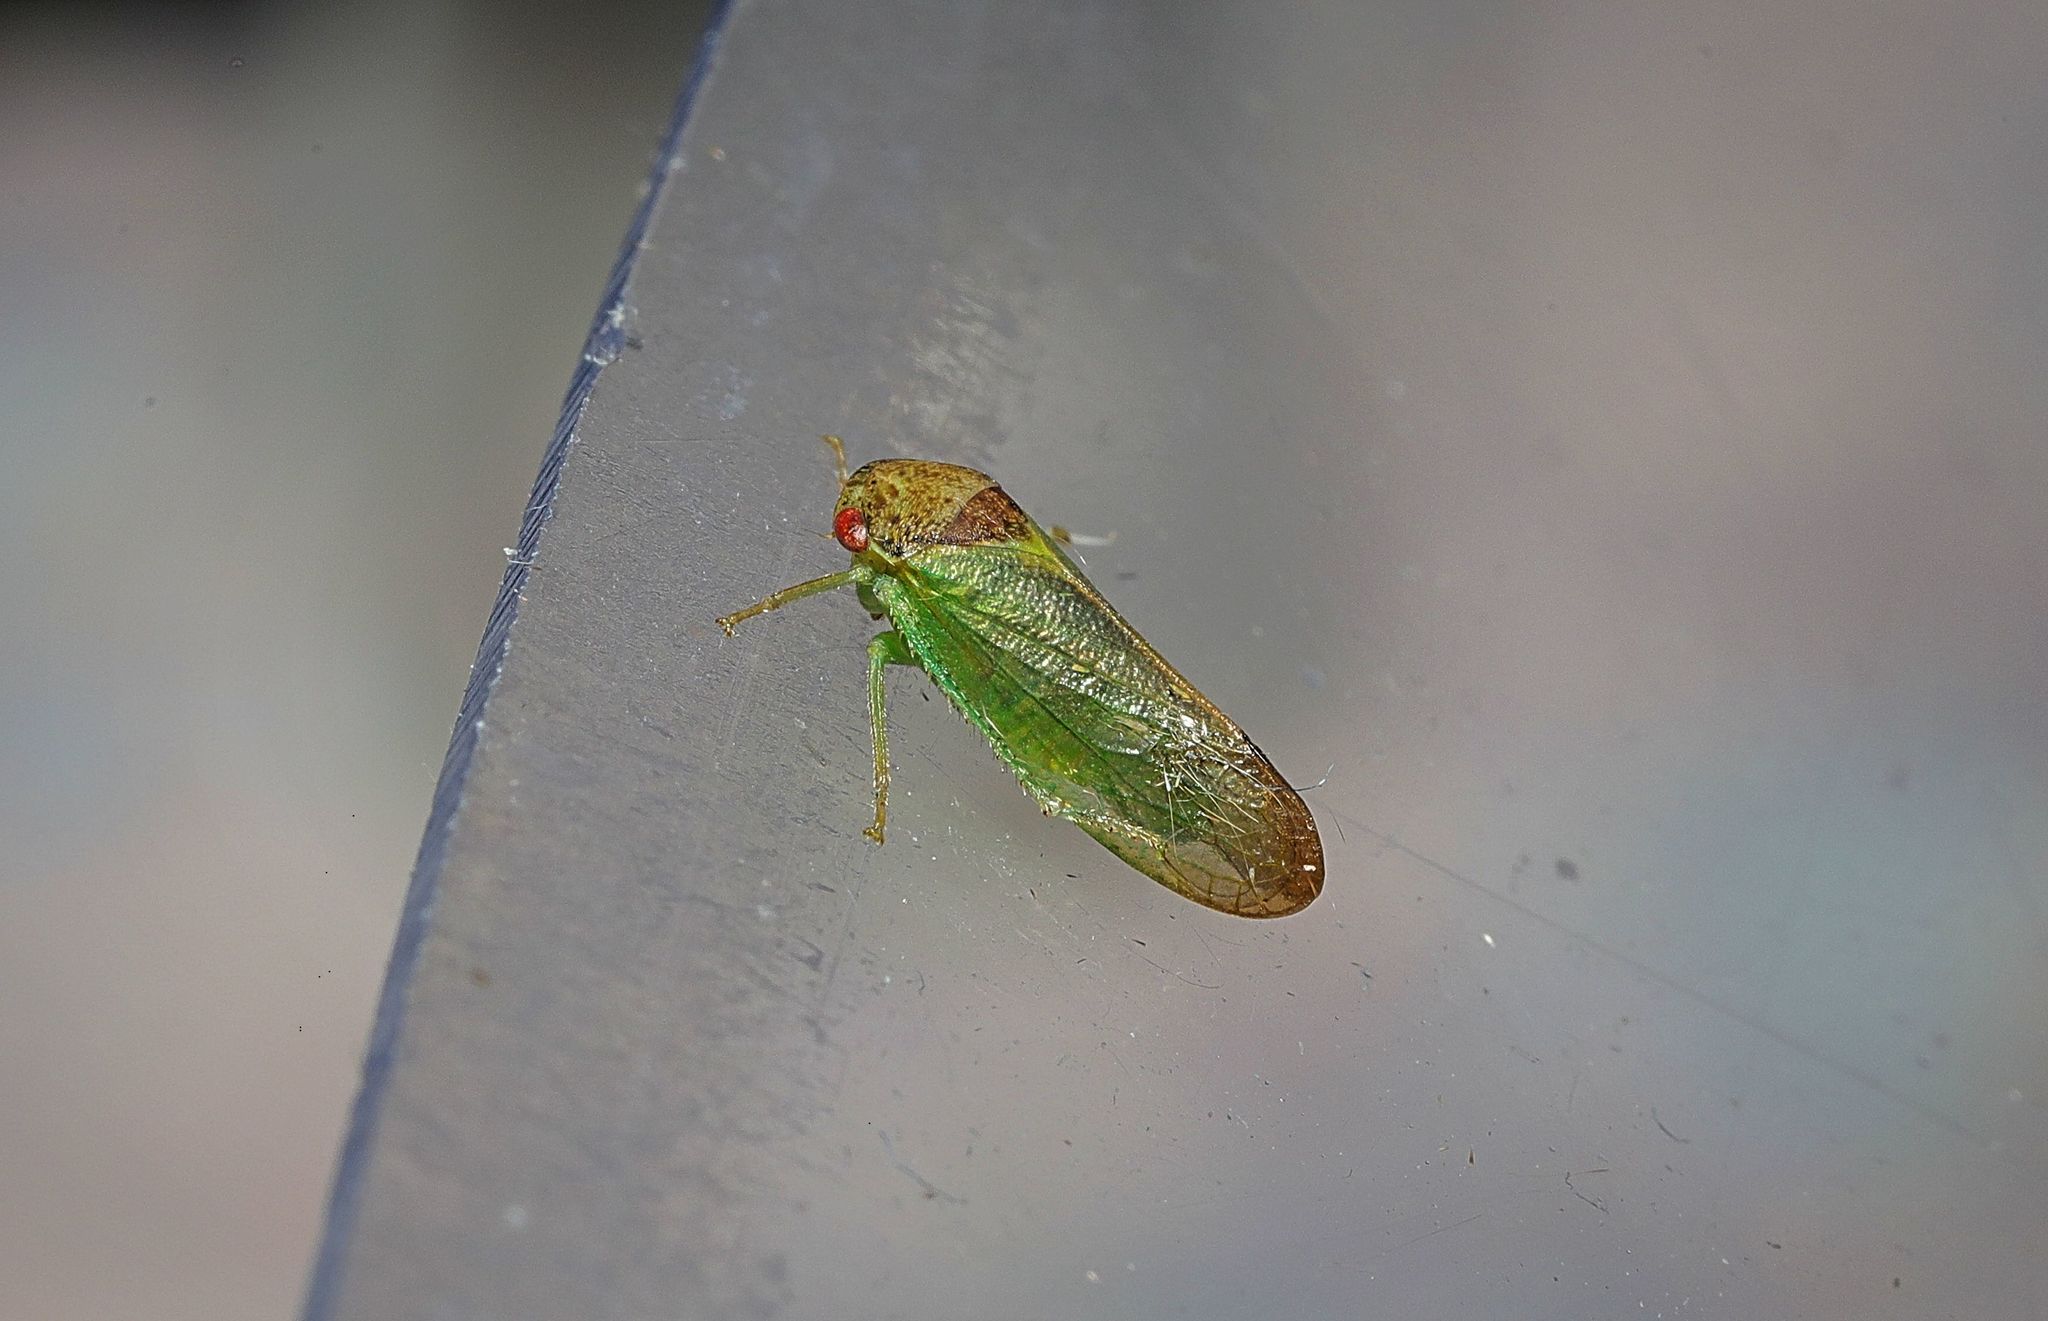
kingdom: Animalia
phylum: Arthropoda
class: Insecta
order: Hemiptera
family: Cicadellidae
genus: Iassus
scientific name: Iassus lanio
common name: Leafhopper
